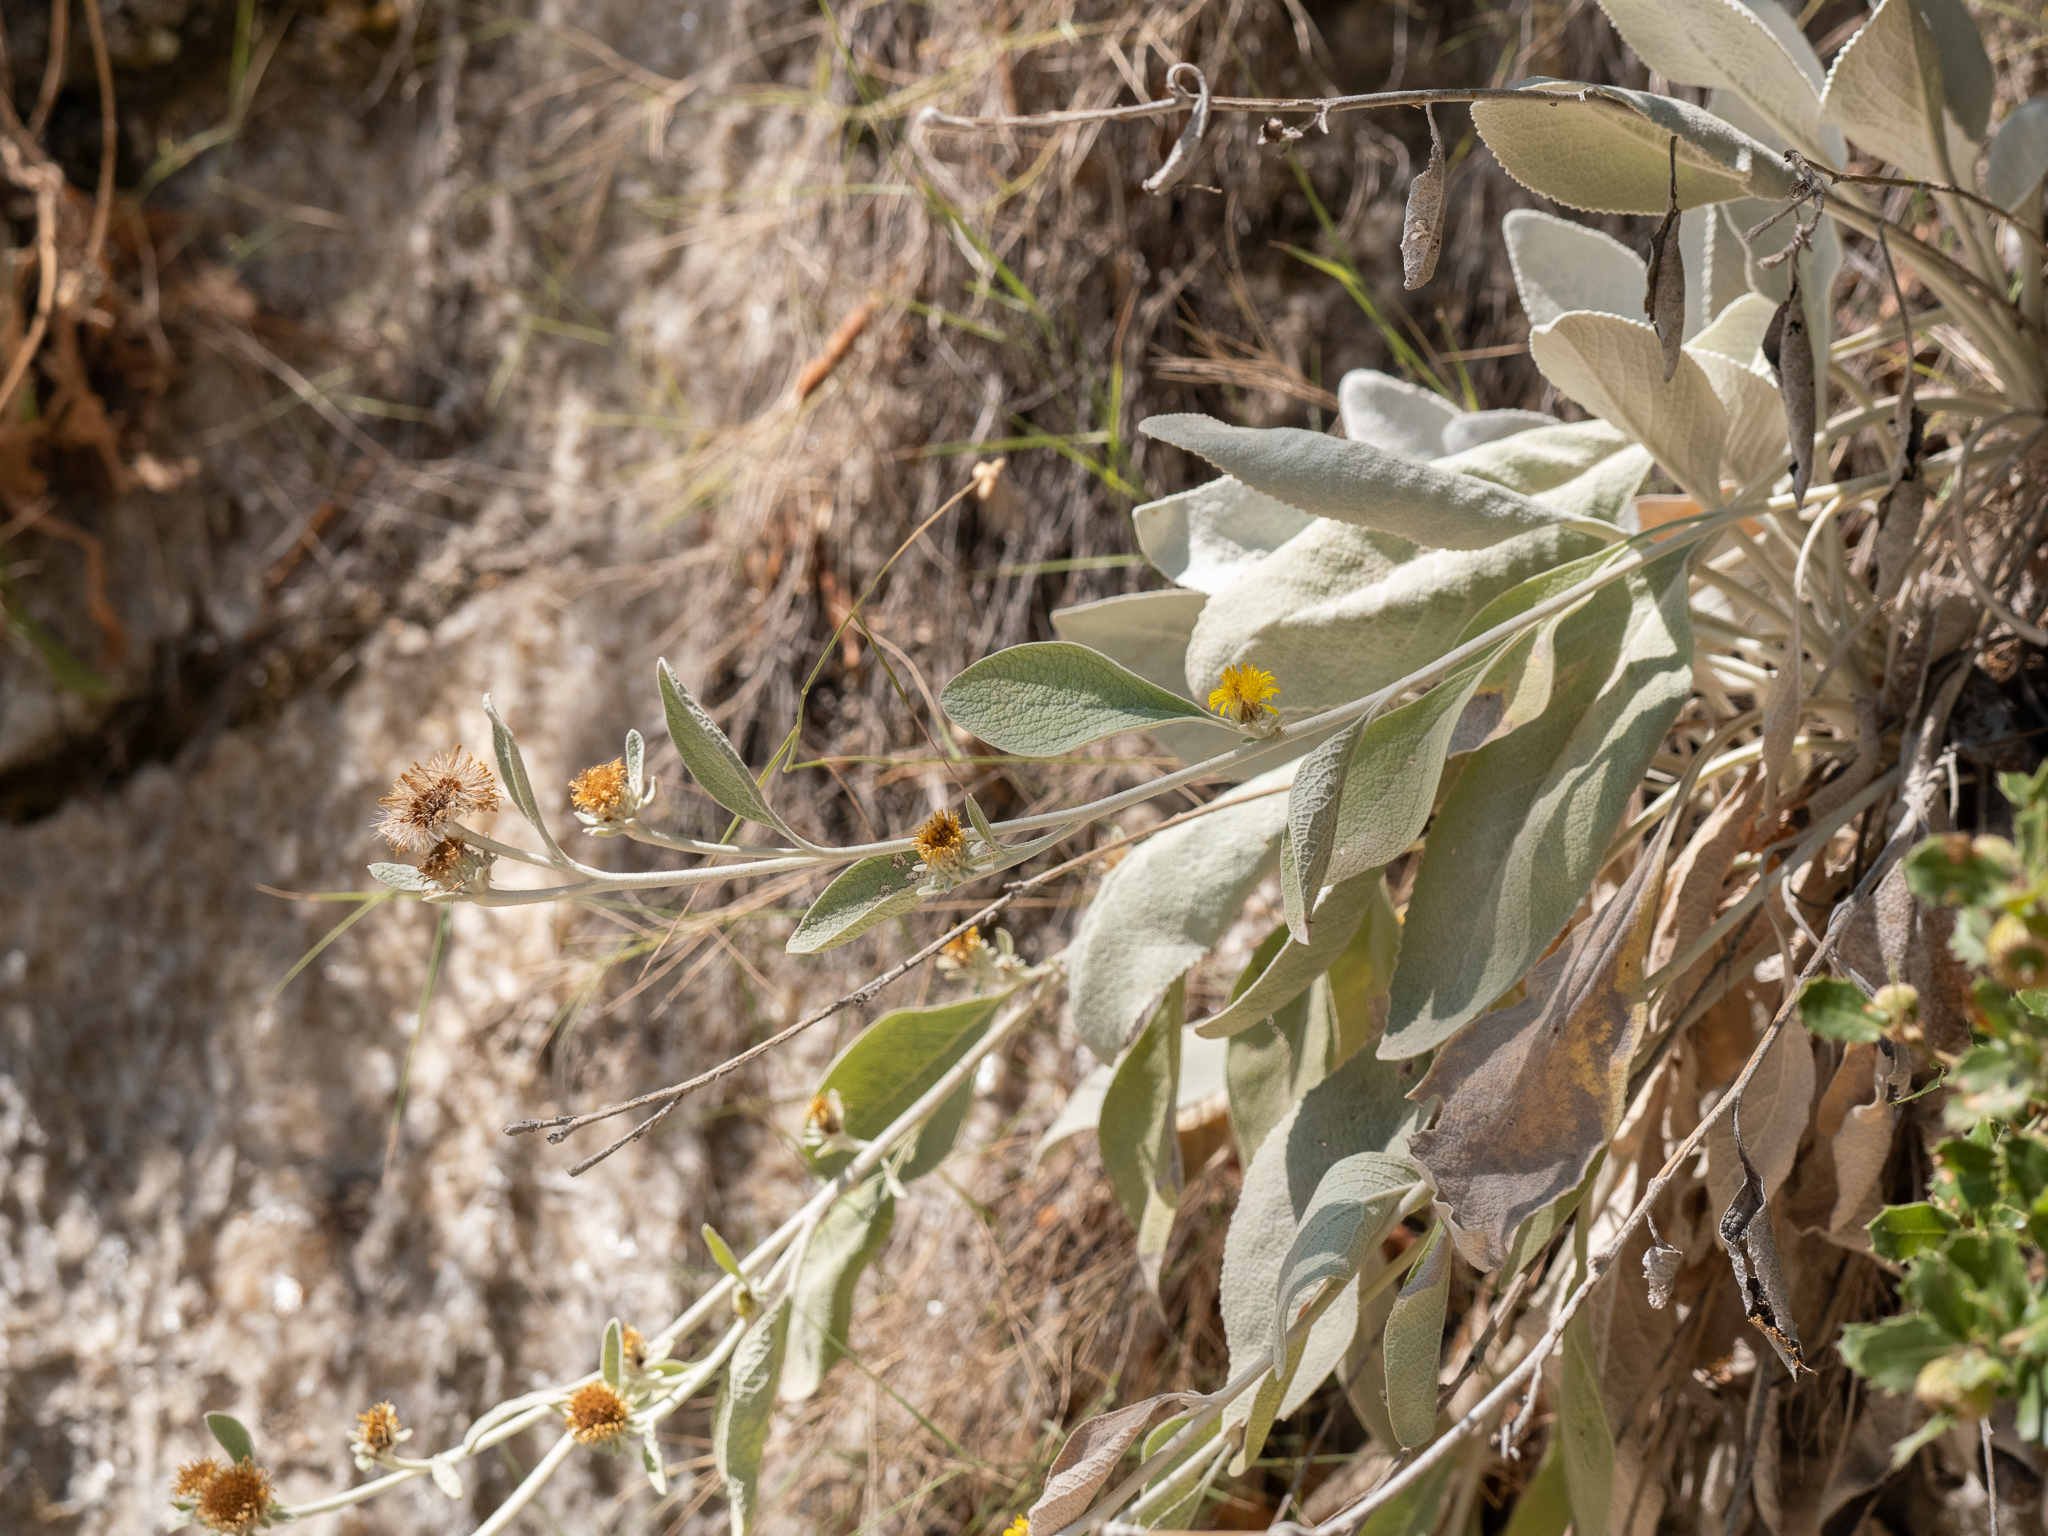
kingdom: Plantae
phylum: Tracheophyta
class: Magnoliopsida
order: Asterales
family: Asteraceae
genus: Pentanema
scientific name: Pentanema verbascifolium
